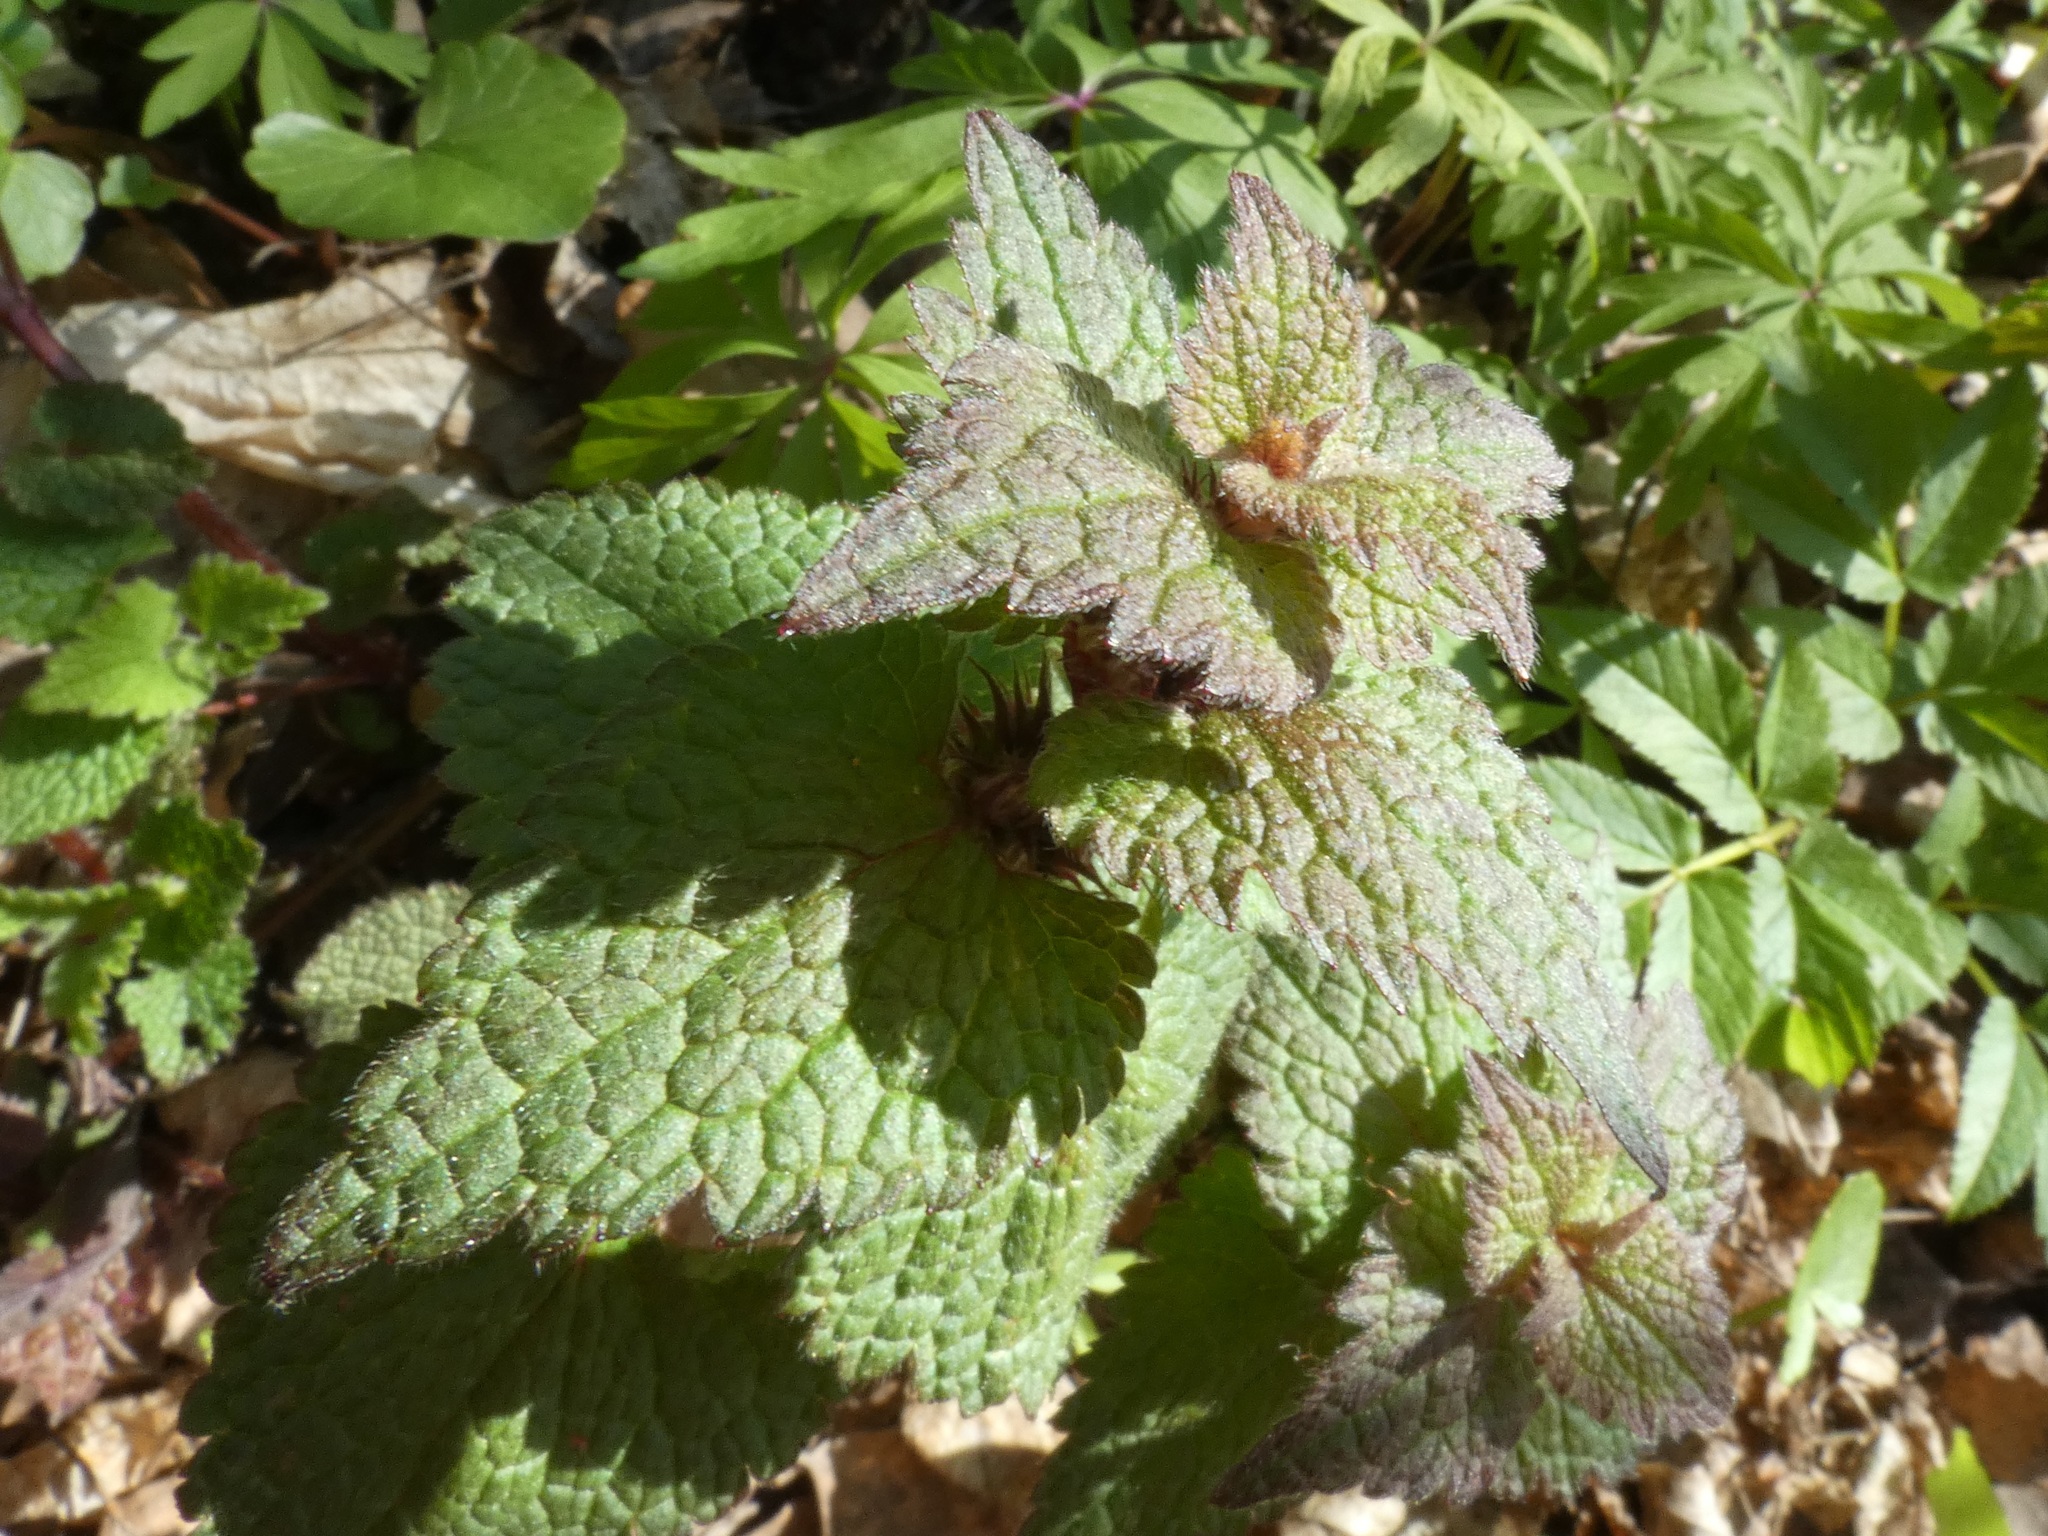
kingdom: Plantae
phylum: Tracheophyta
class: Magnoliopsida
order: Lamiales
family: Lamiaceae
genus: Lamium
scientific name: Lamium maculatum
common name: Spotted dead-nettle
